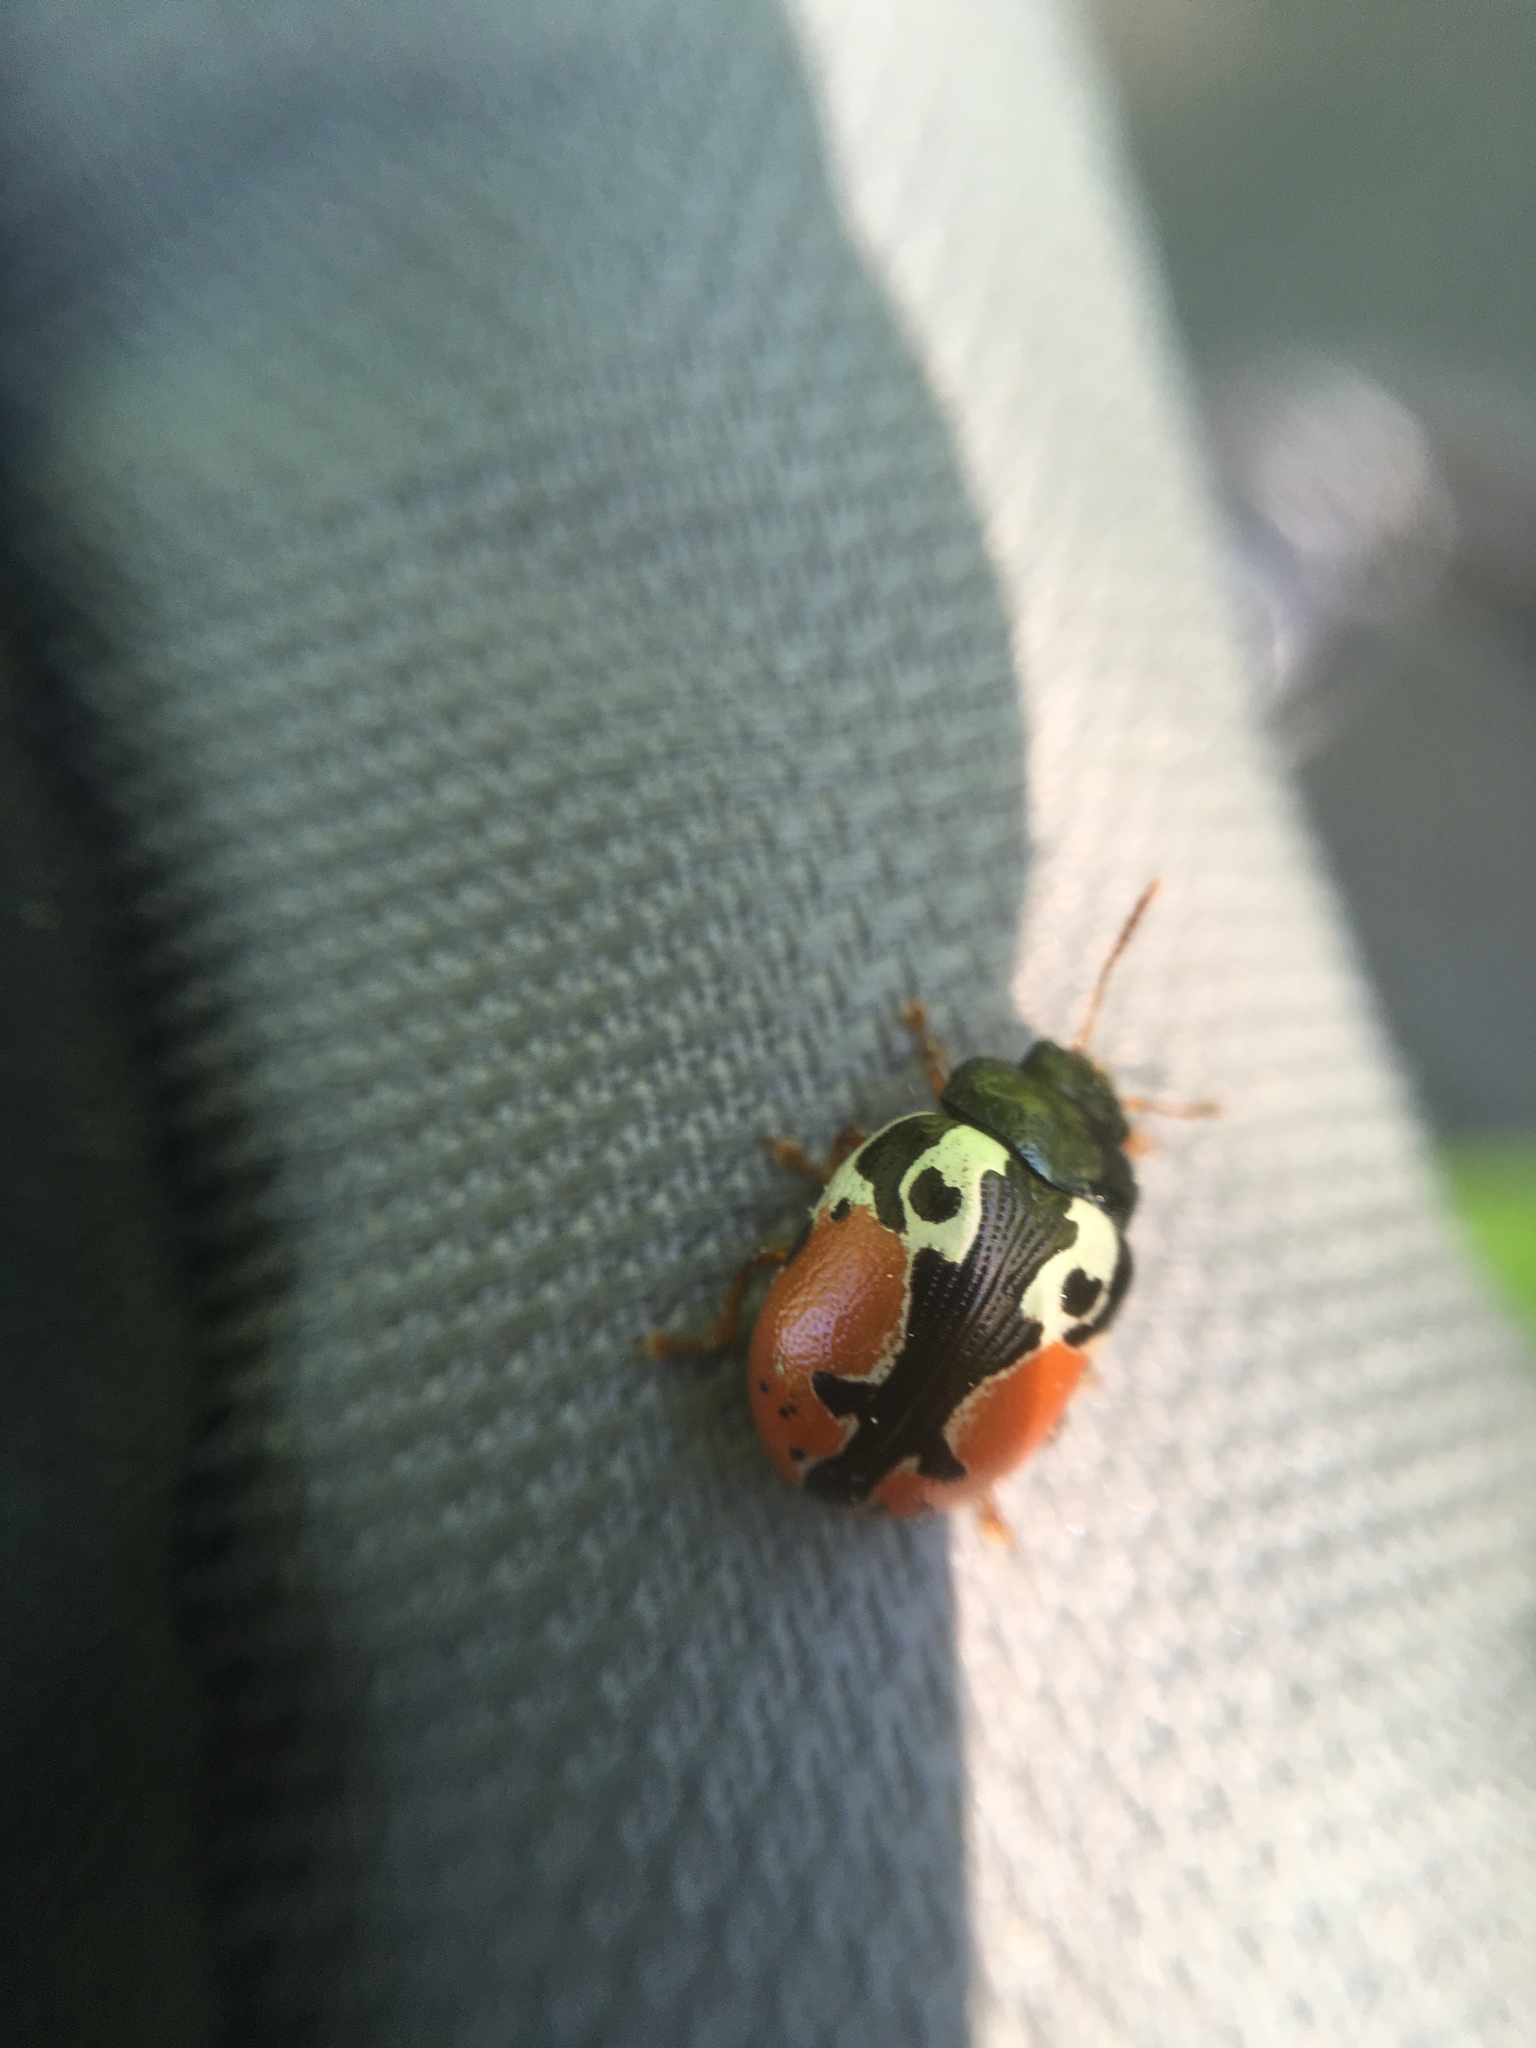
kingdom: Animalia
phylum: Arthropoda
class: Insecta
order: Coleoptera
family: Chrysomelidae
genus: Calligrapha
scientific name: Calligrapha rowena
